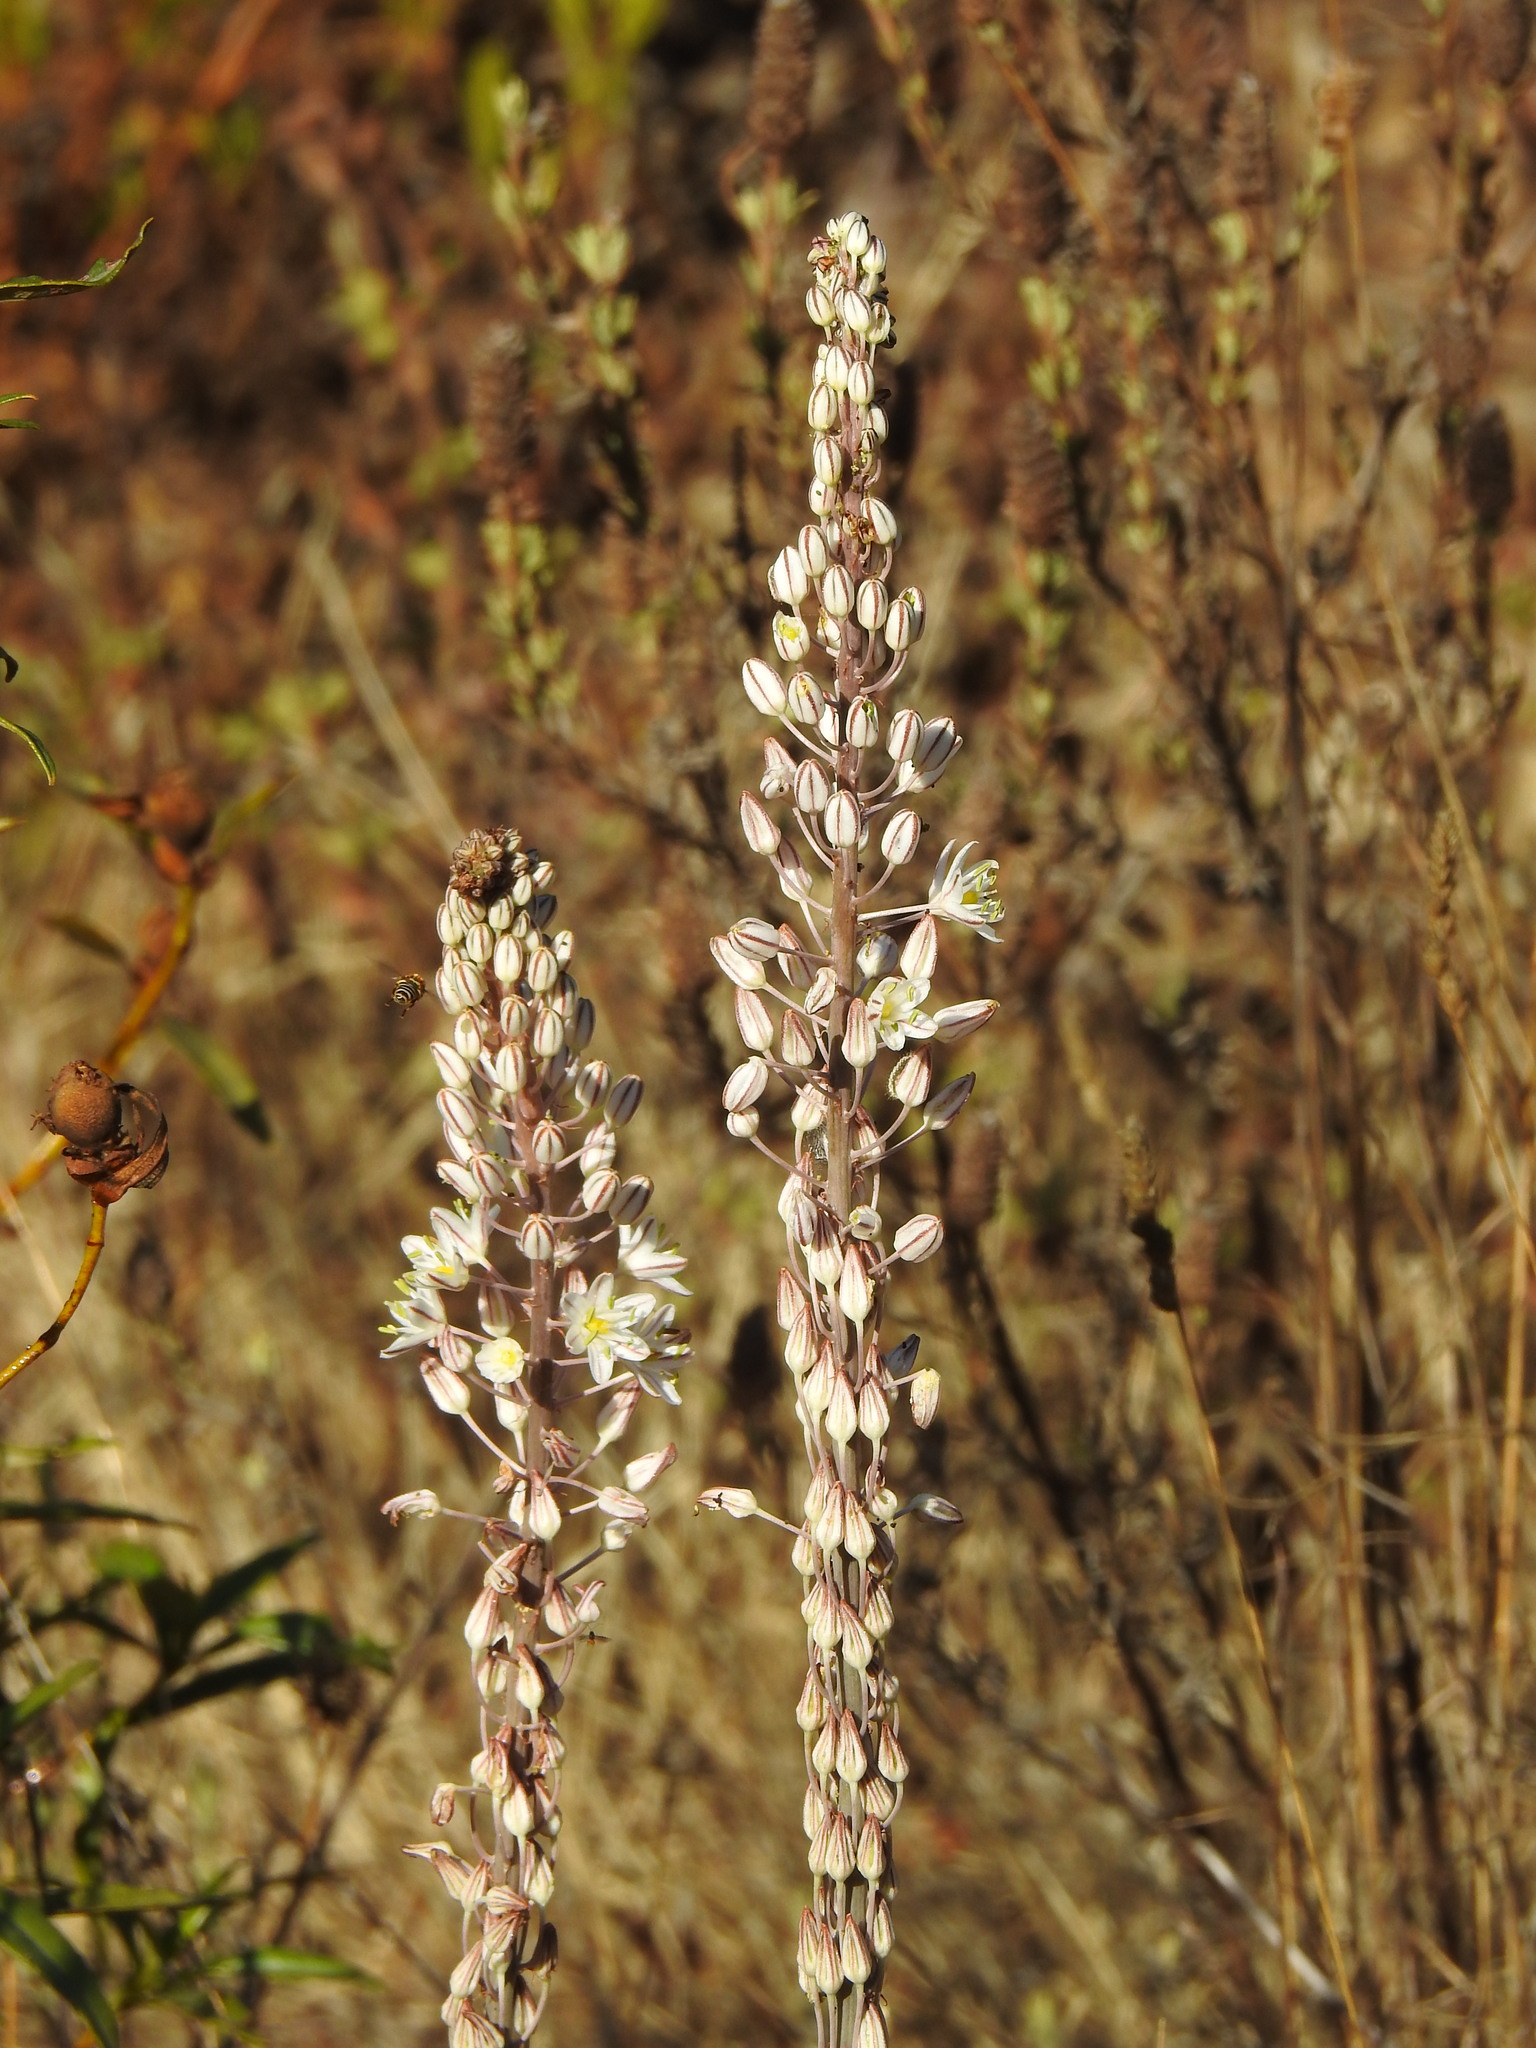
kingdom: Plantae
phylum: Tracheophyta
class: Liliopsida
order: Asparagales
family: Asparagaceae
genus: Drimia
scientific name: Drimia maritima
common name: Maritime squill
